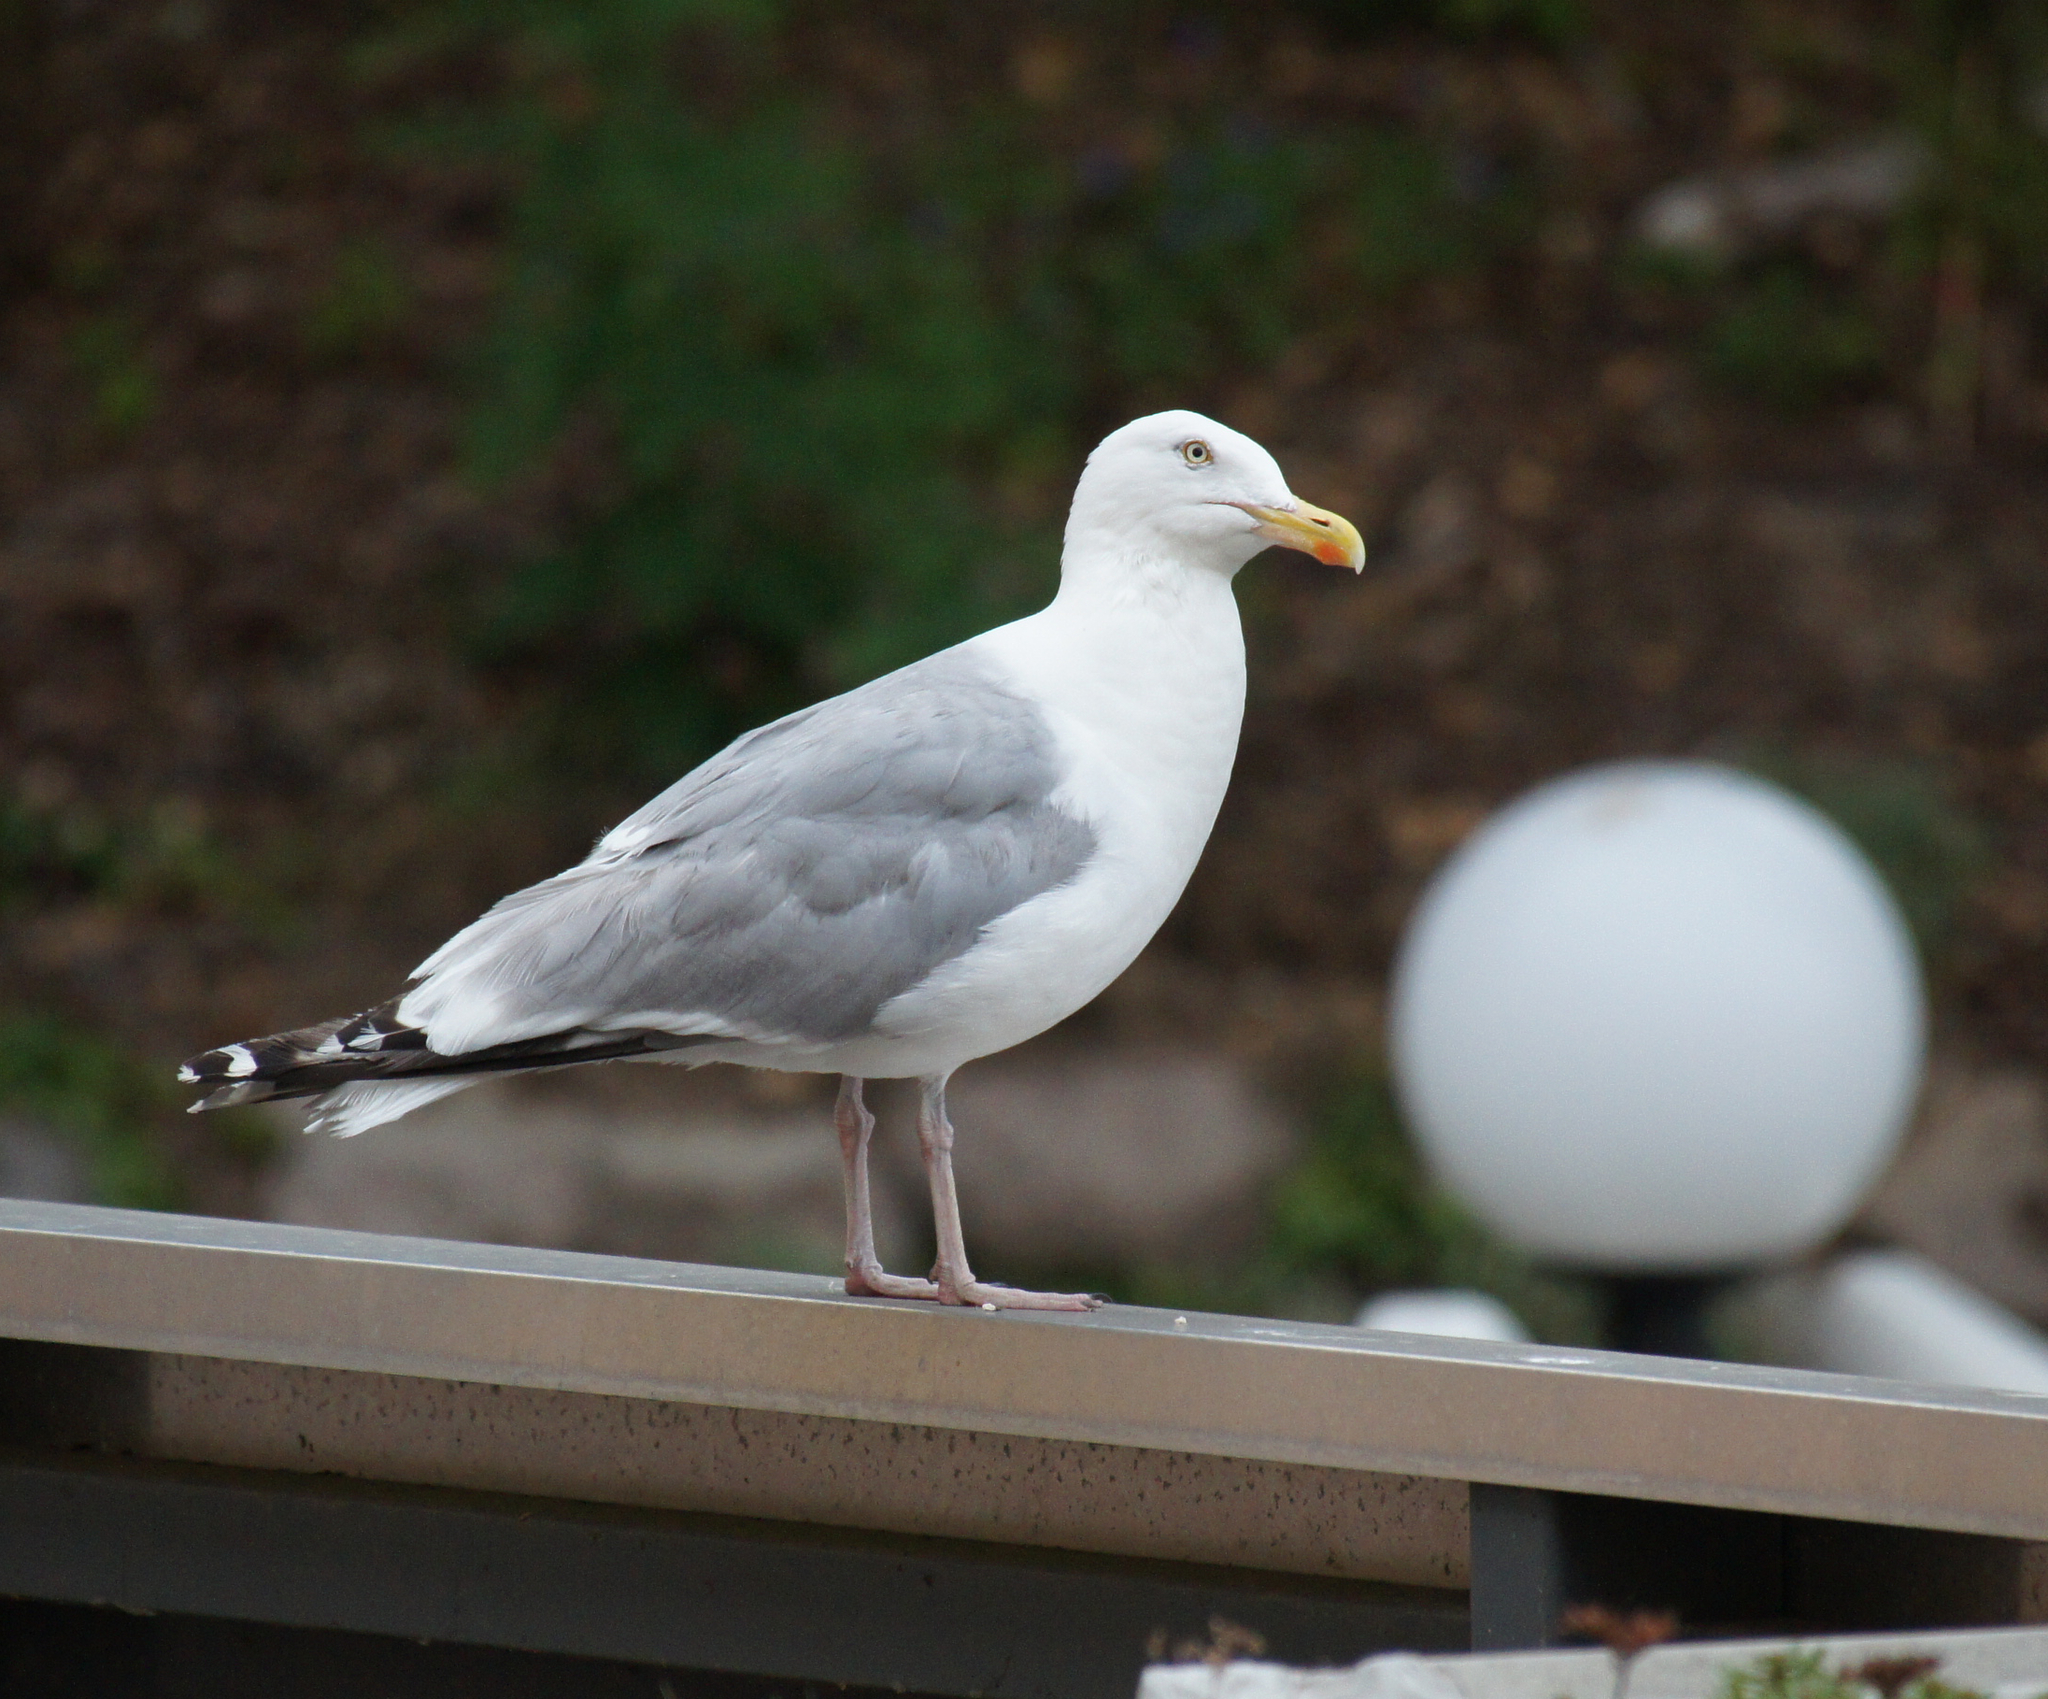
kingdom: Animalia
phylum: Chordata
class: Aves
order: Charadriiformes
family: Laridae
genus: Larus
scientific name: Larus argentatus
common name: Herring gull
